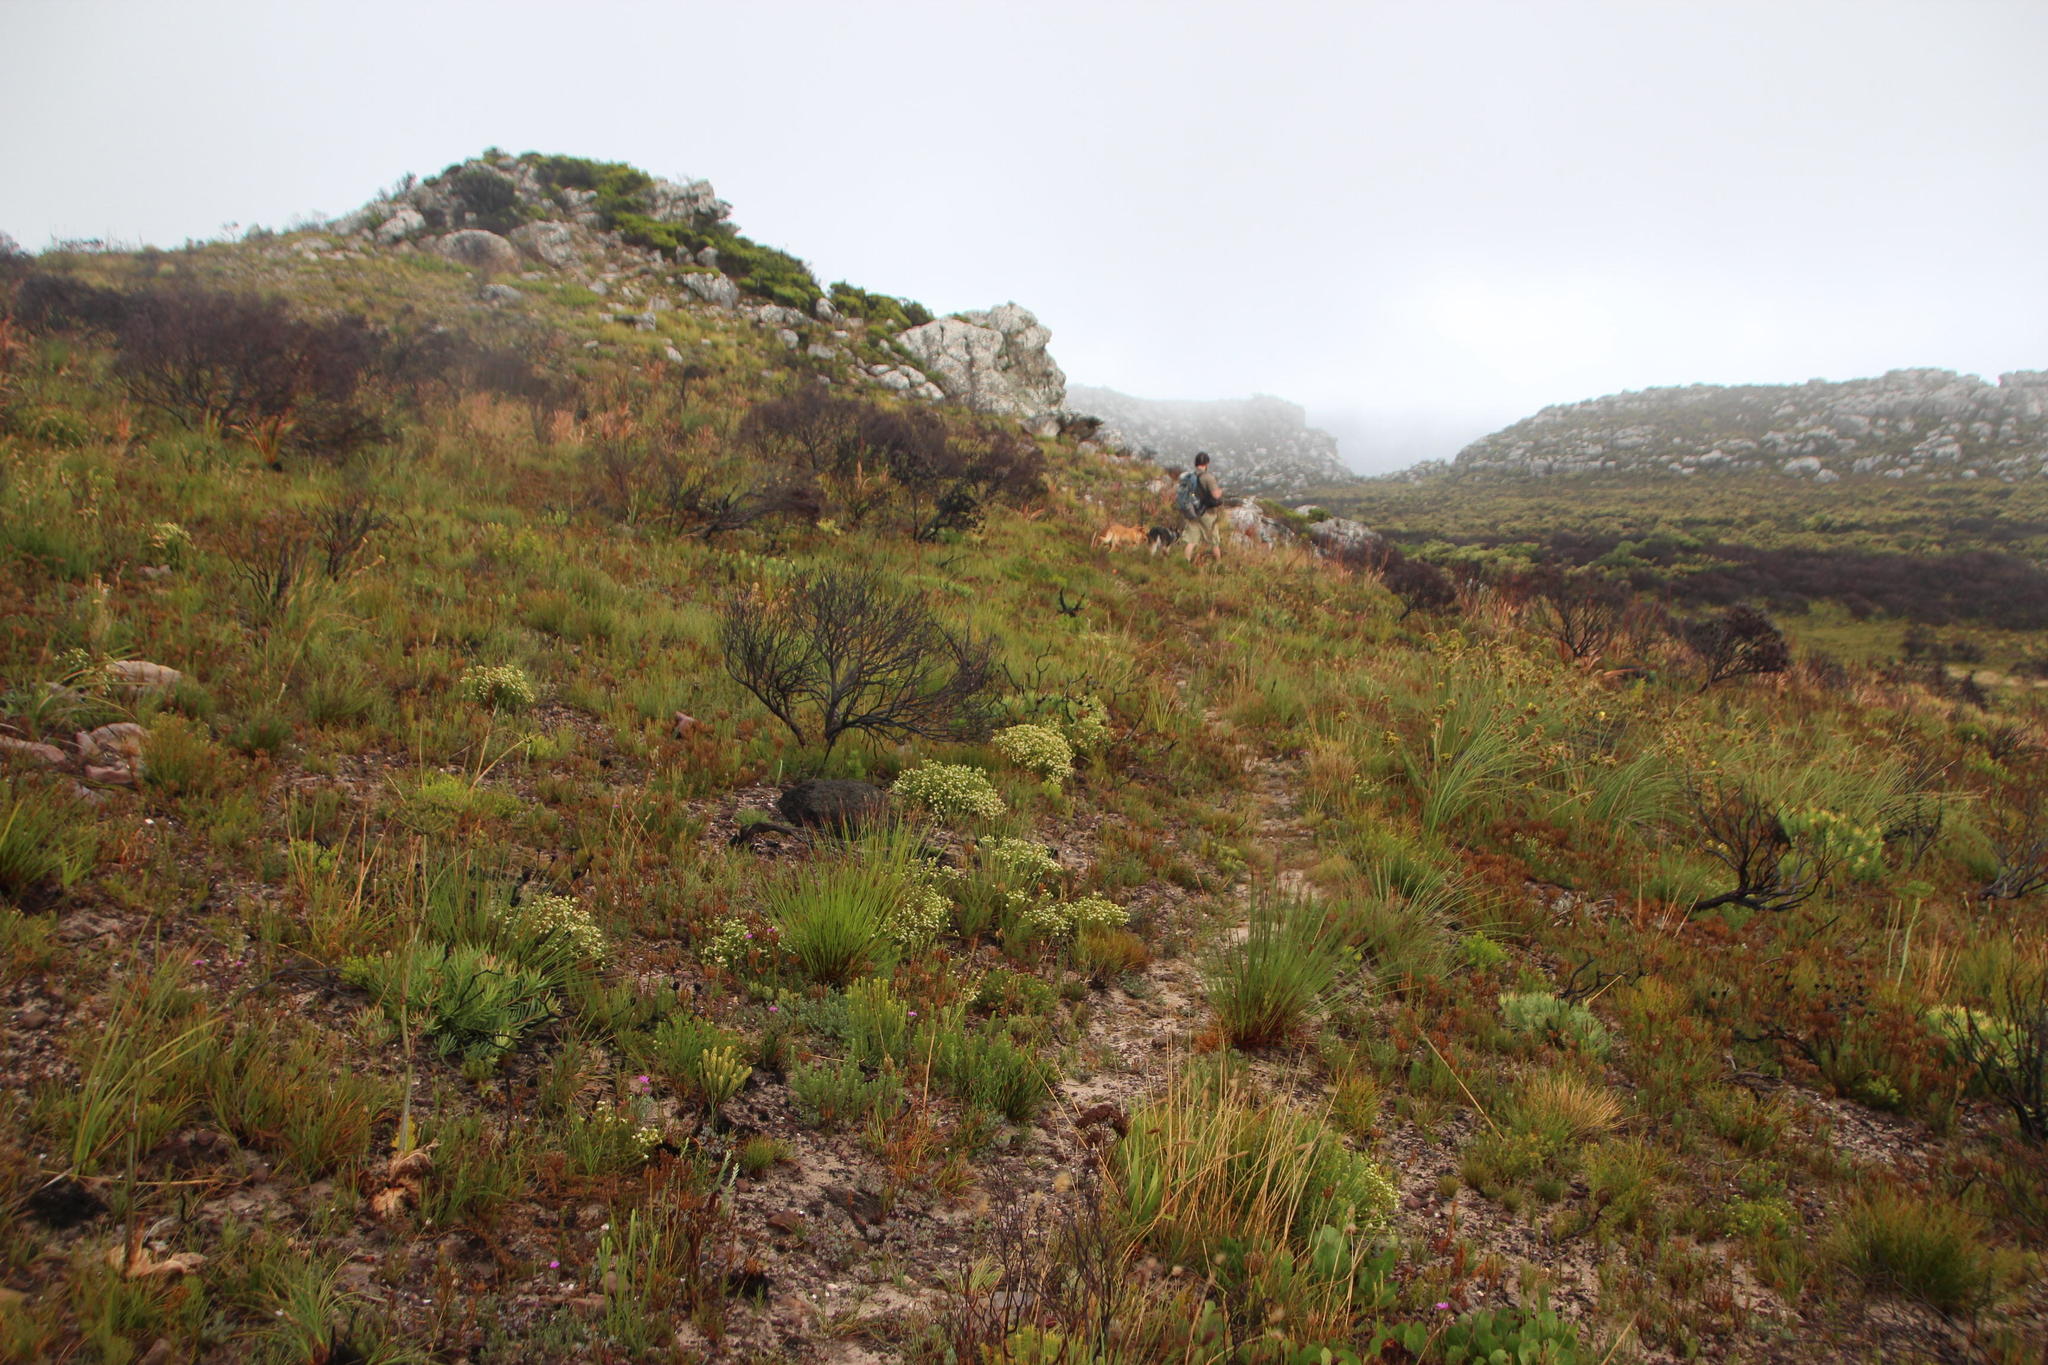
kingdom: Plantae
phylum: Tracheophyta
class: Magnoliopsida
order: Sapindales
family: Rutaceae
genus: Diosma
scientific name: Diosma oppositifolia
